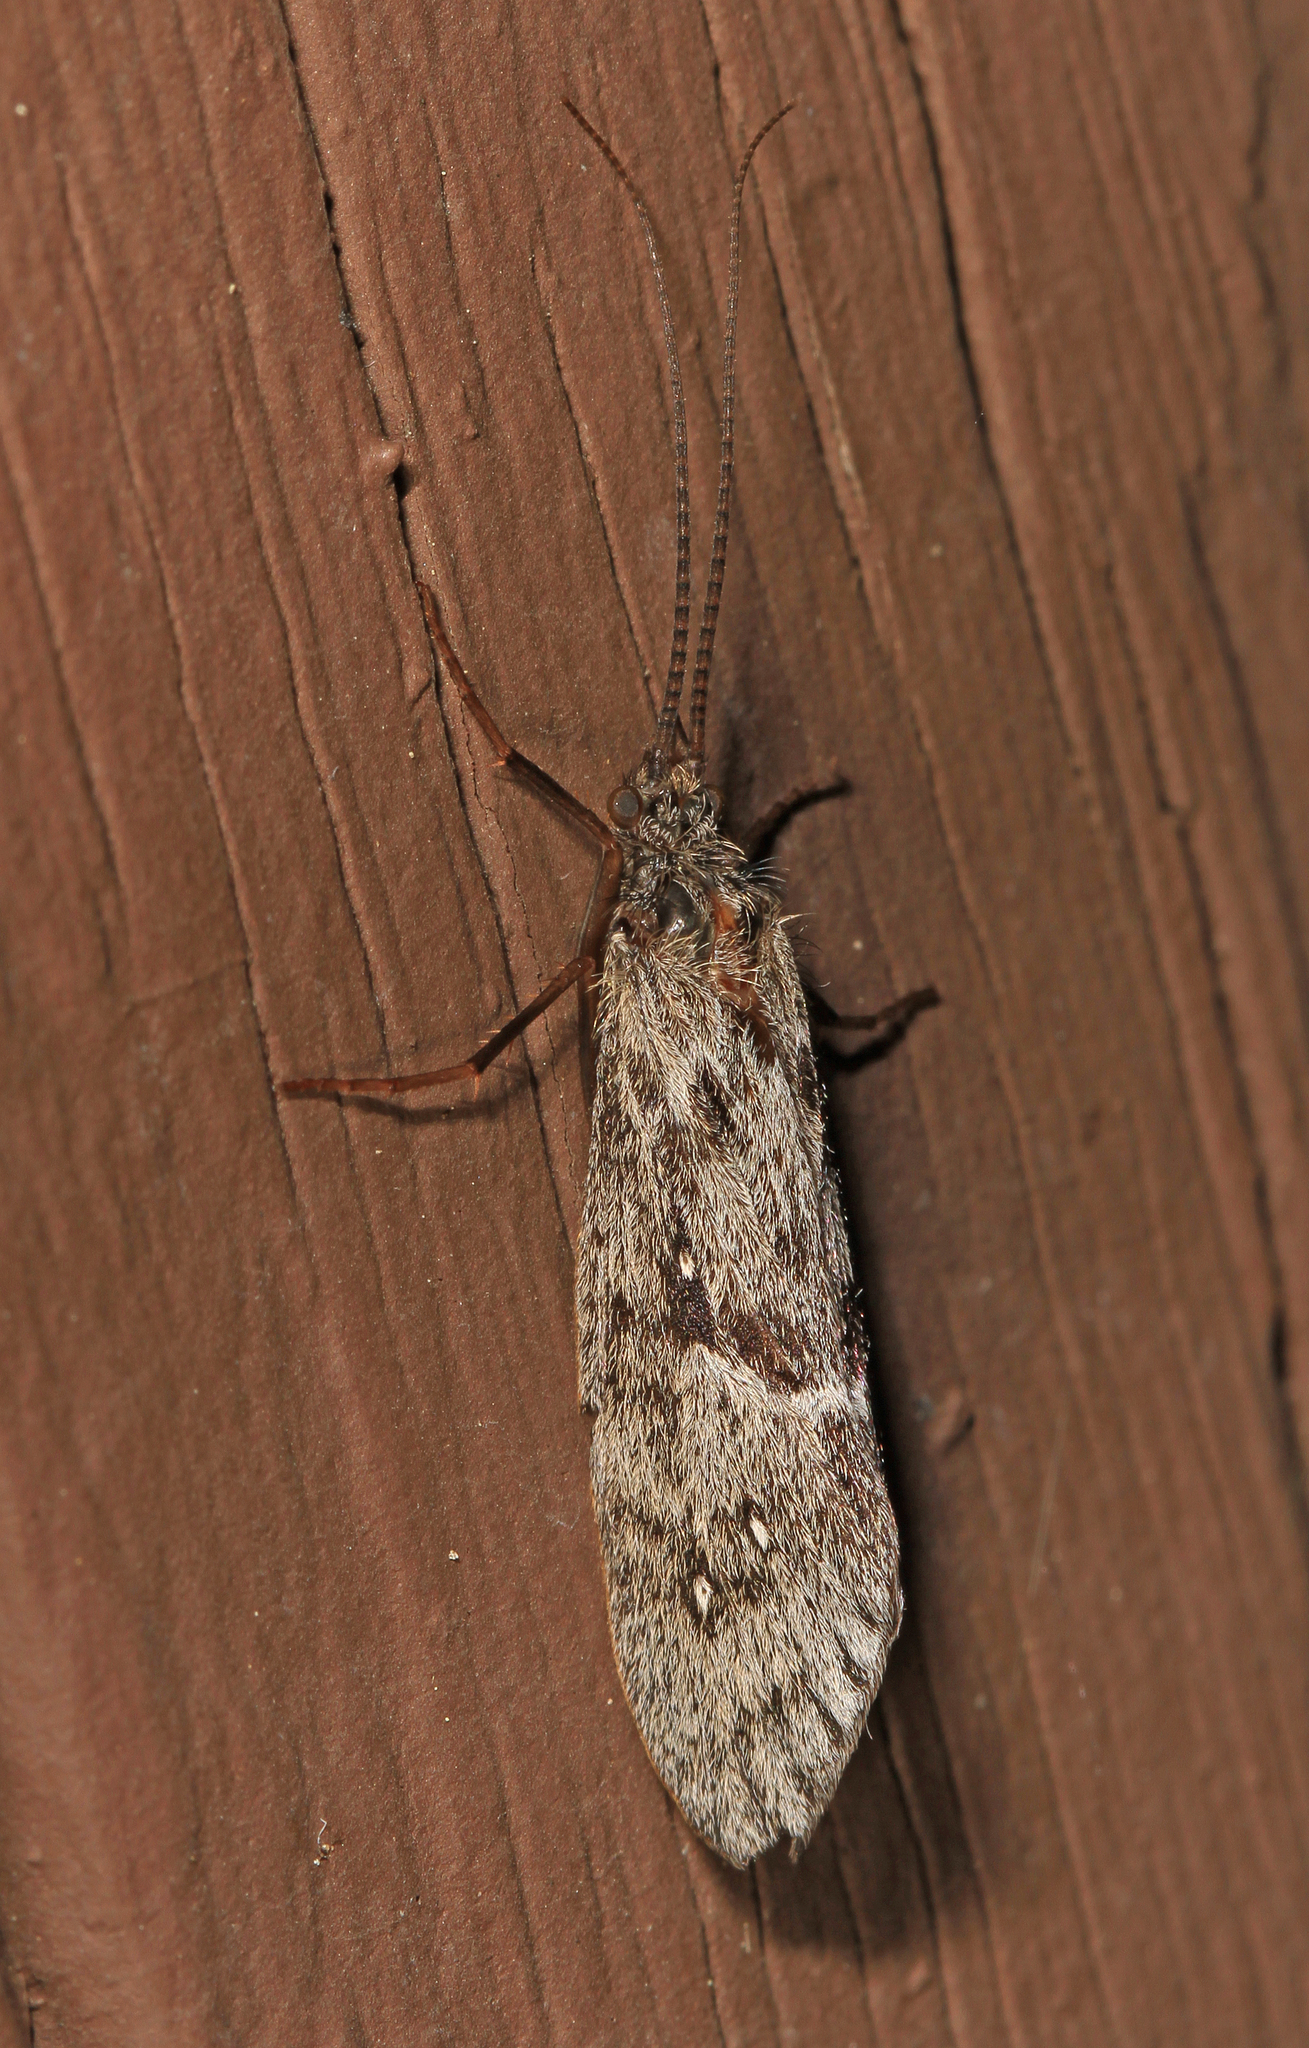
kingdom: Animalia
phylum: Arthropoda
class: Insecta
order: Trichoptera
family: Phryganeidae
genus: Yphria
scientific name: Yphria californica
